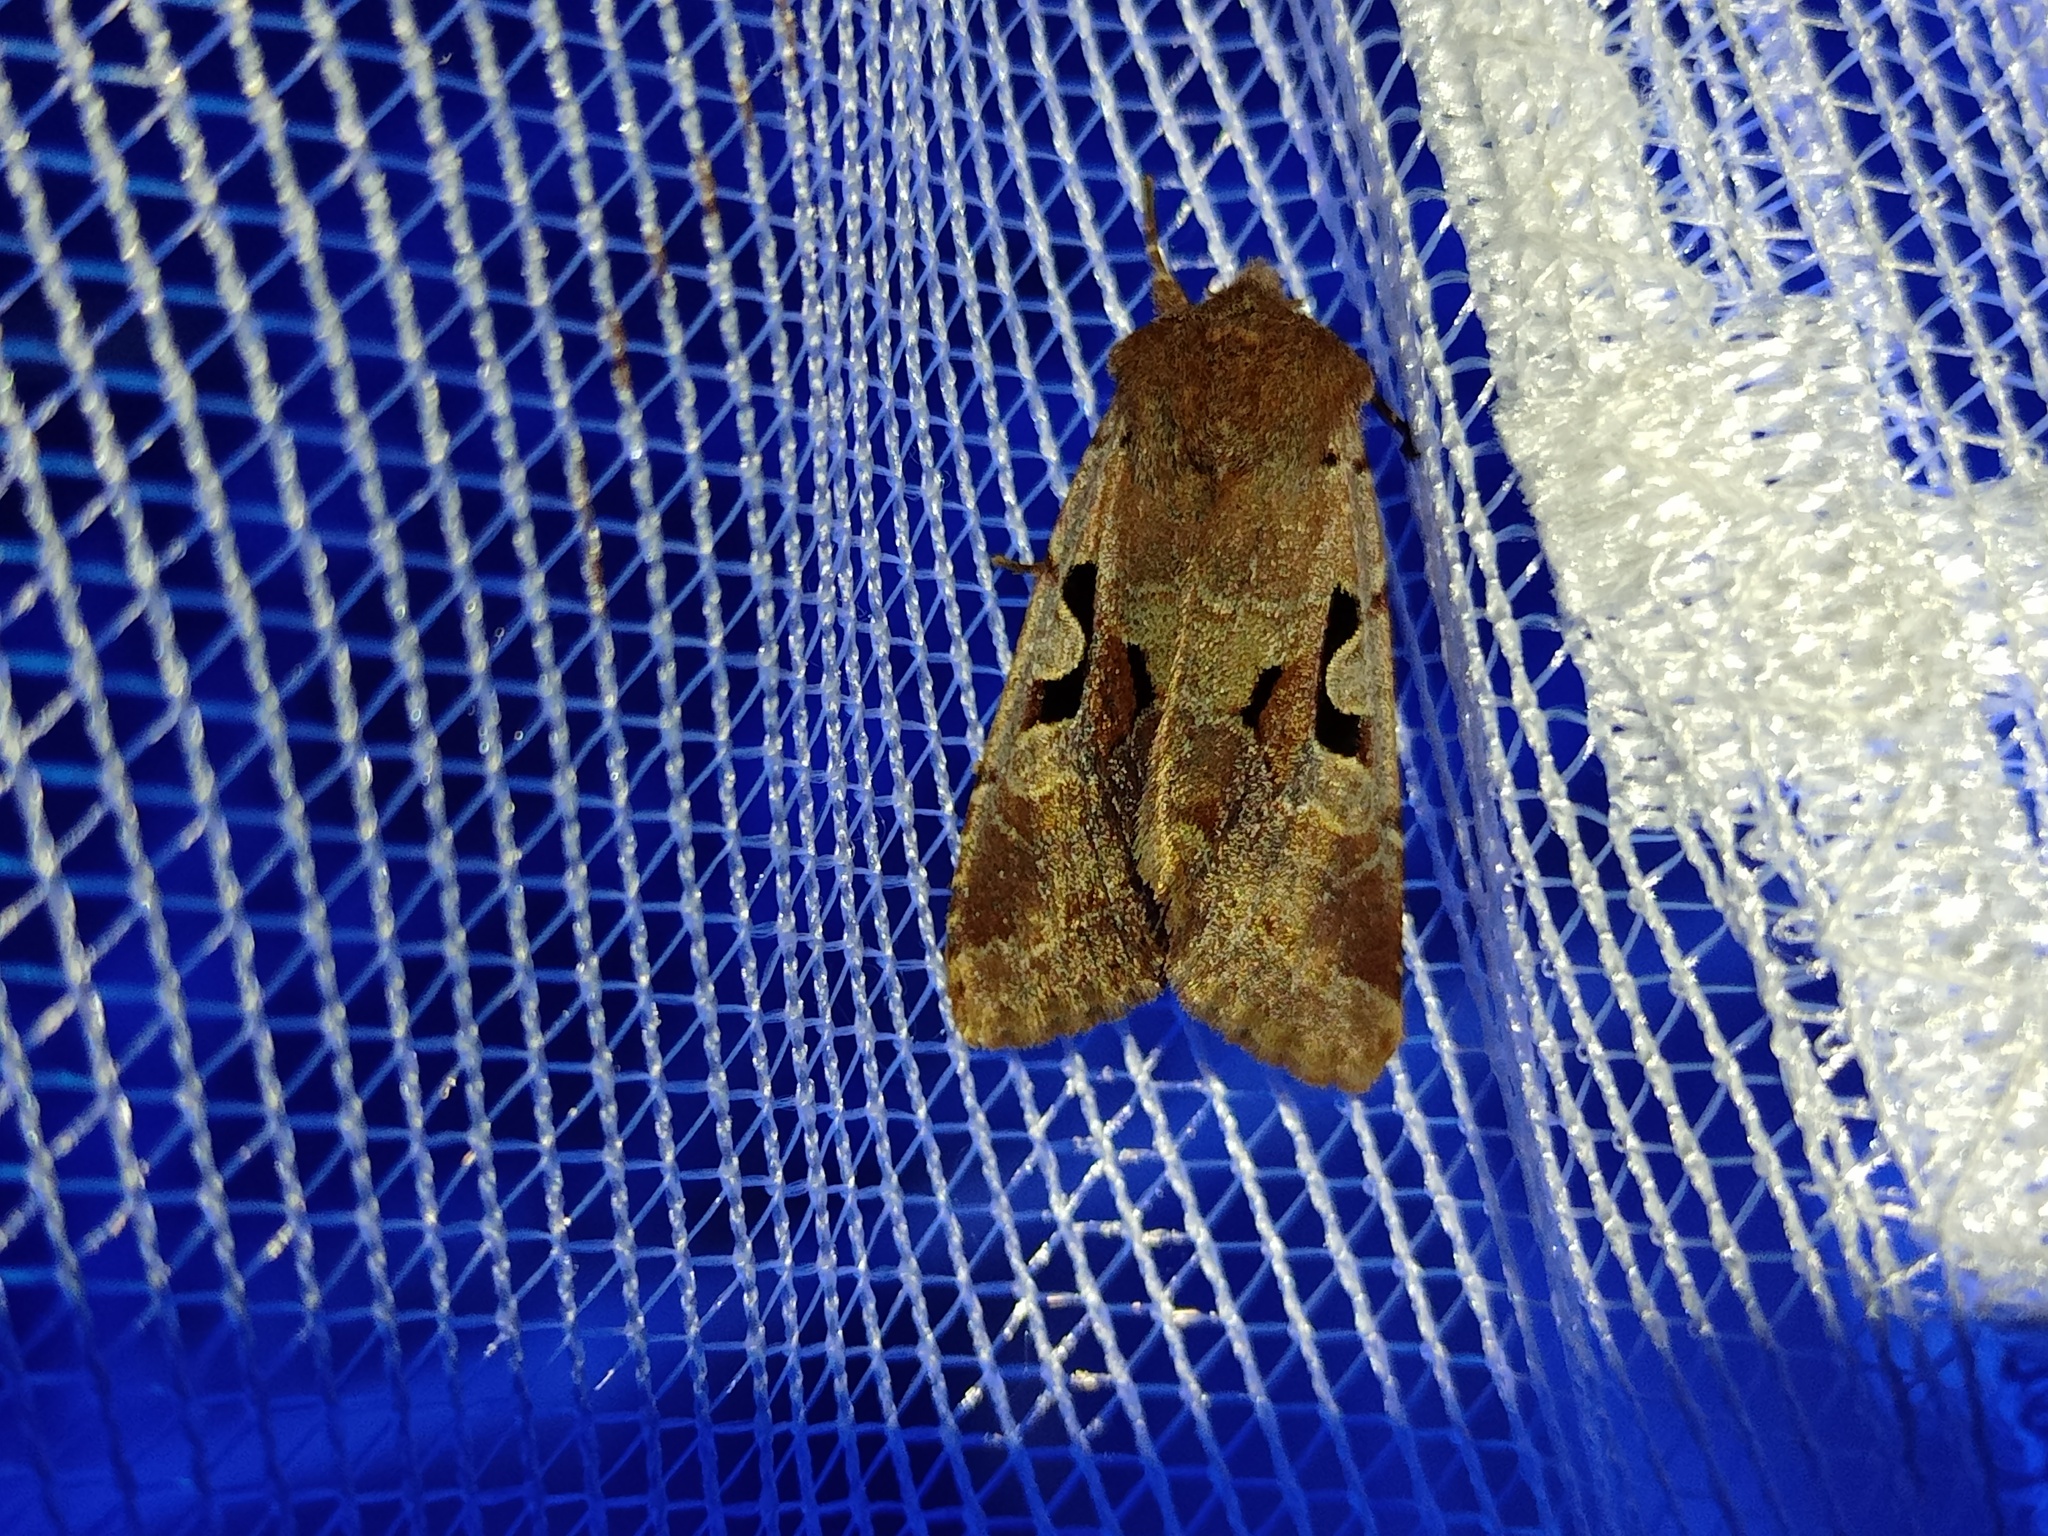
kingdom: Animalia
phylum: Arthropoda
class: Insecta
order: Lepidoptera
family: Noctuidae
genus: Orthosia
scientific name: Orthosia gothica
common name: Hebrew character
